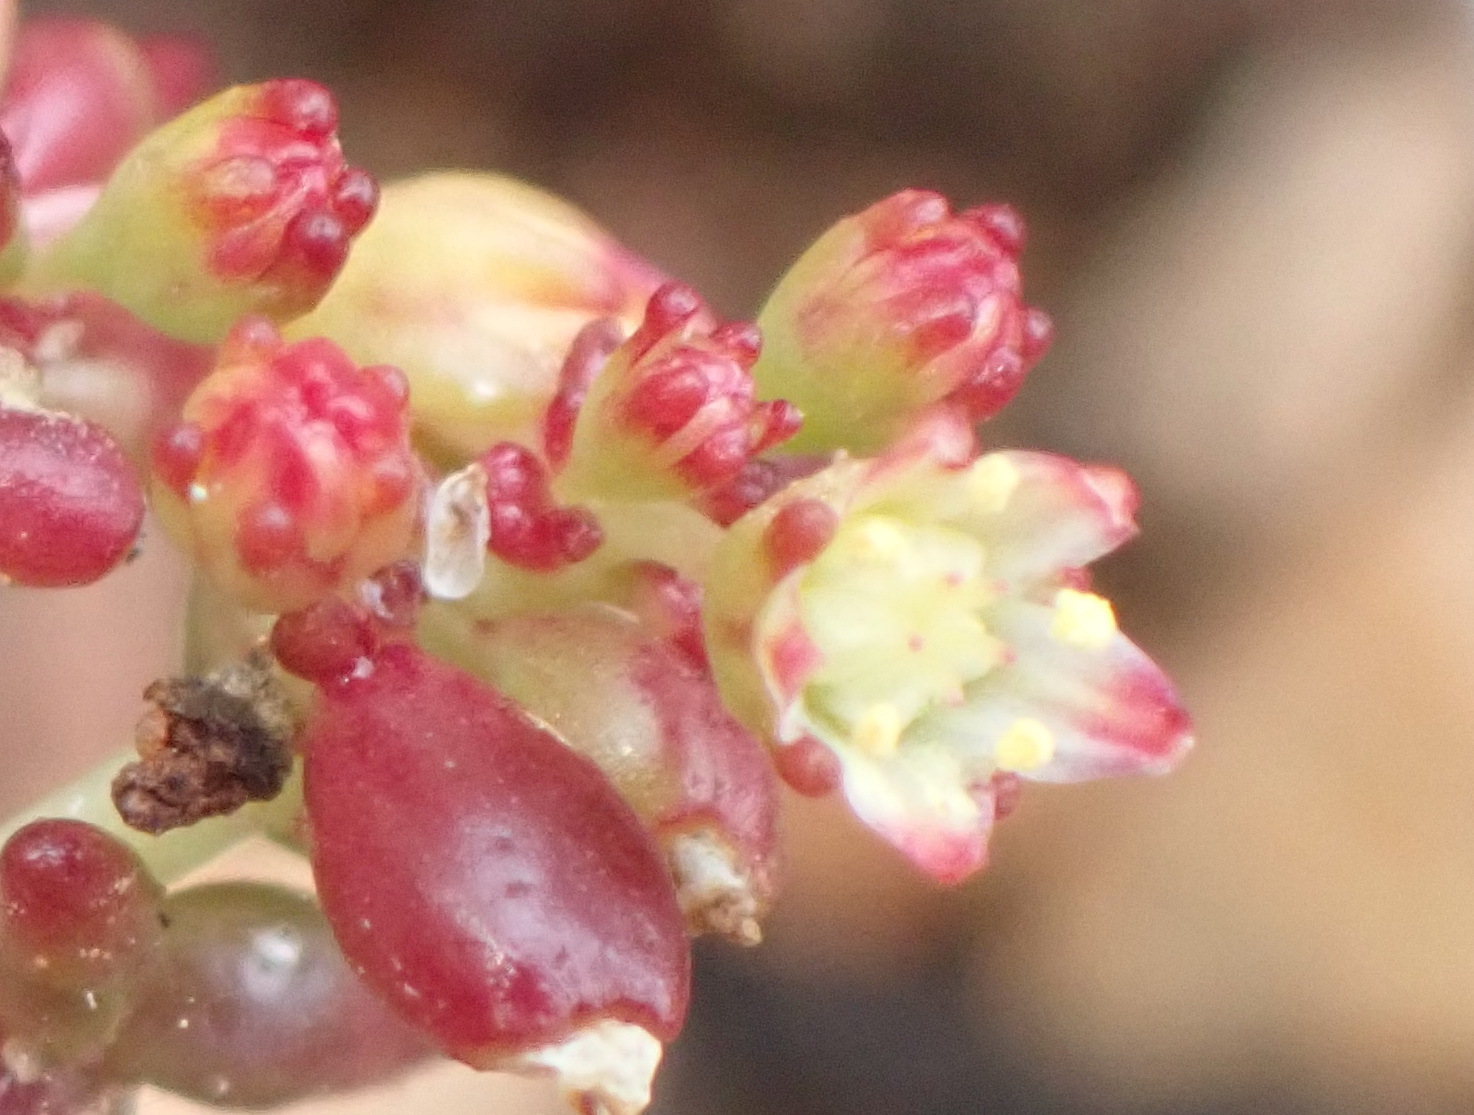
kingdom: Plantae
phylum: Tracheophyta
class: Magnoliopsida
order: Saxifragales
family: Crassulaceae
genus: Crassula
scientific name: Crassula expansa
